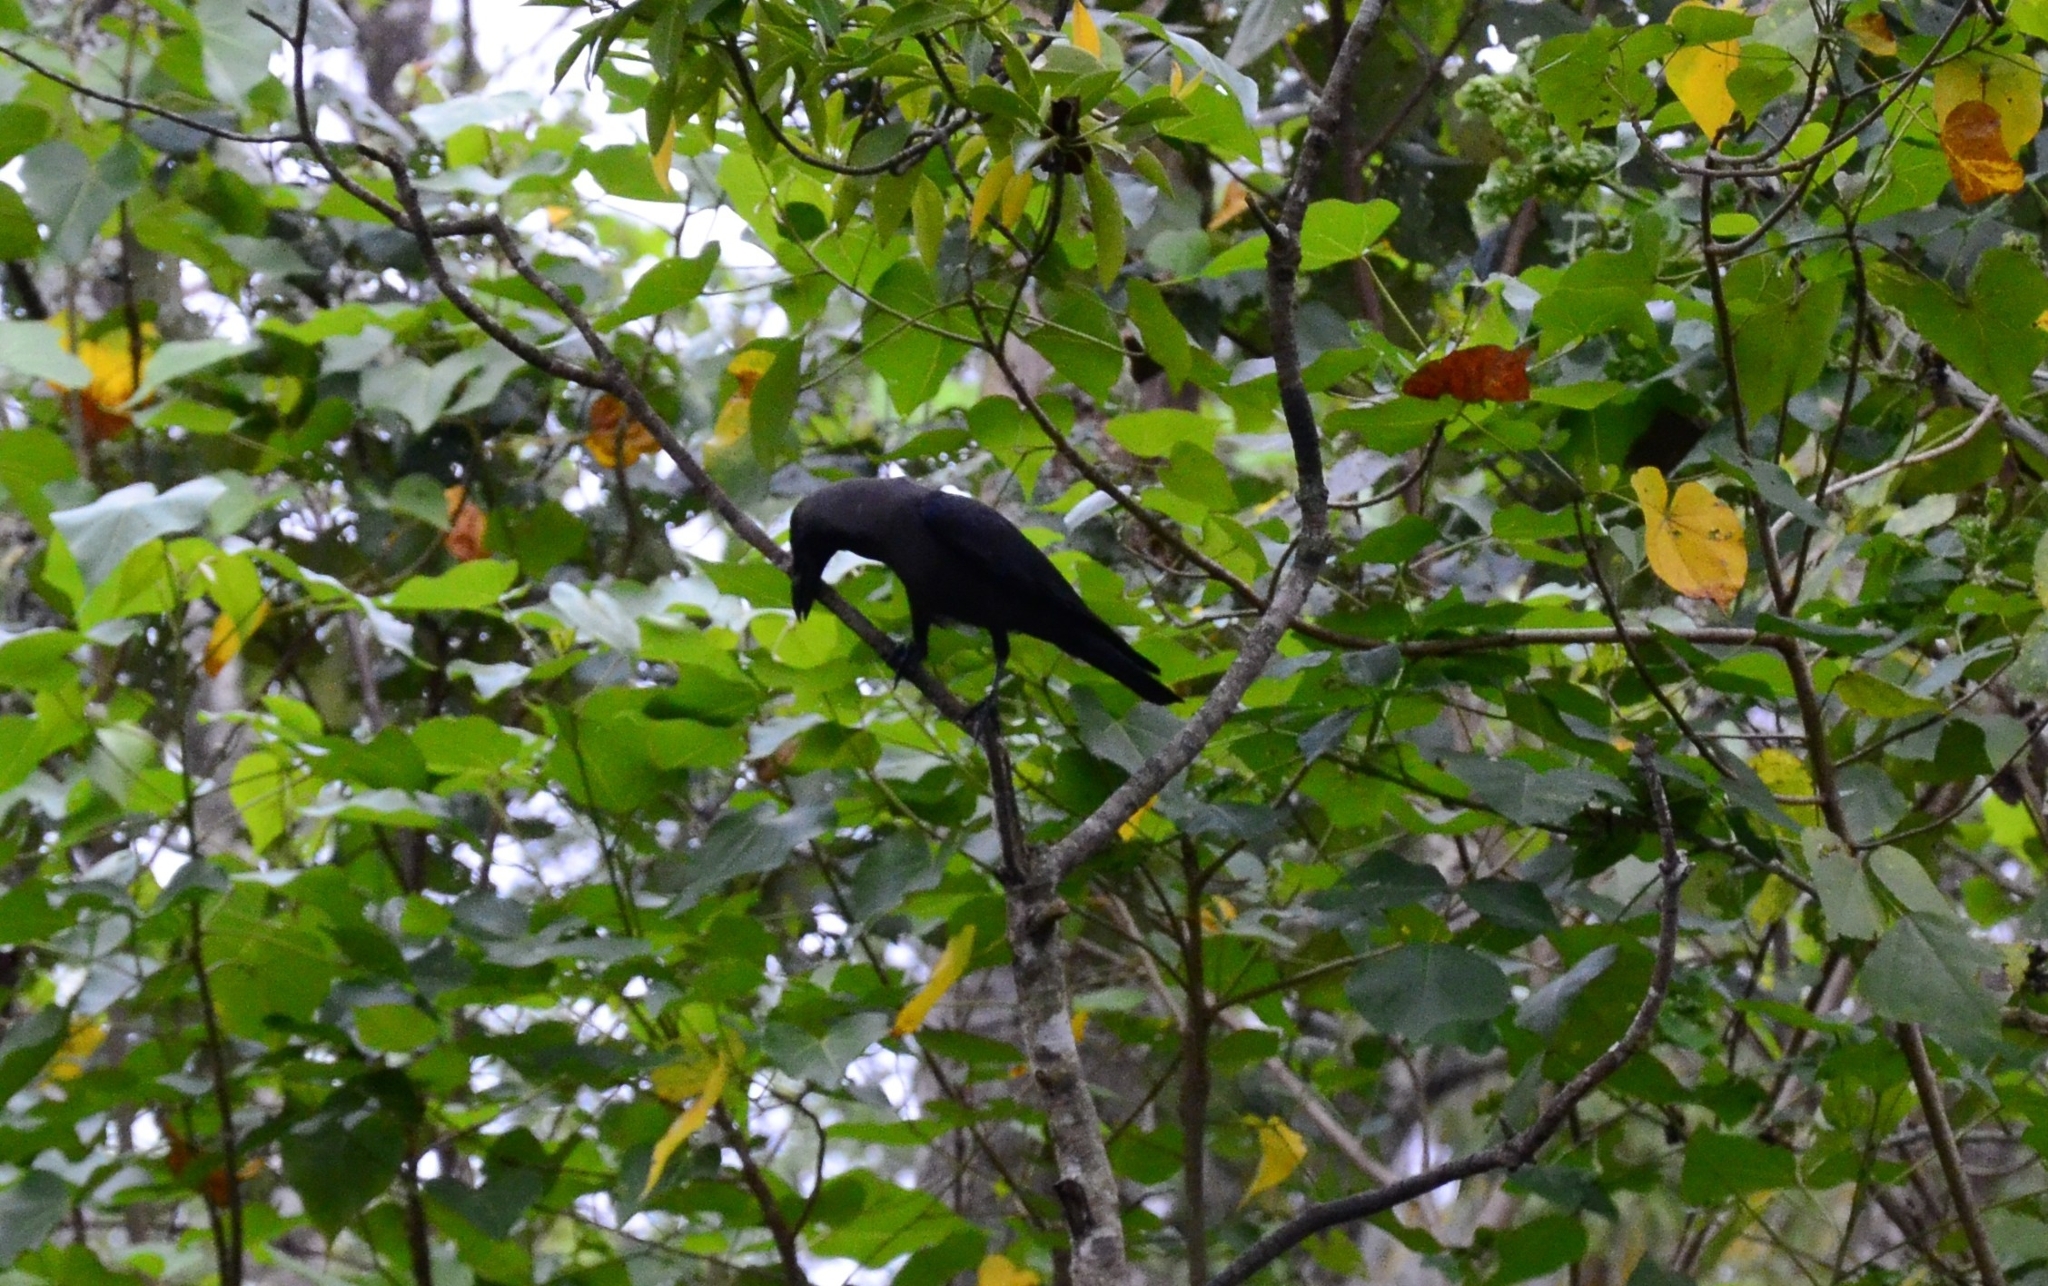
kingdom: Animalia
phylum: Chordata
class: Aves
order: Passeriformes
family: Corvidae
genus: Corvus
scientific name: Corvus splendens
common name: House crow
